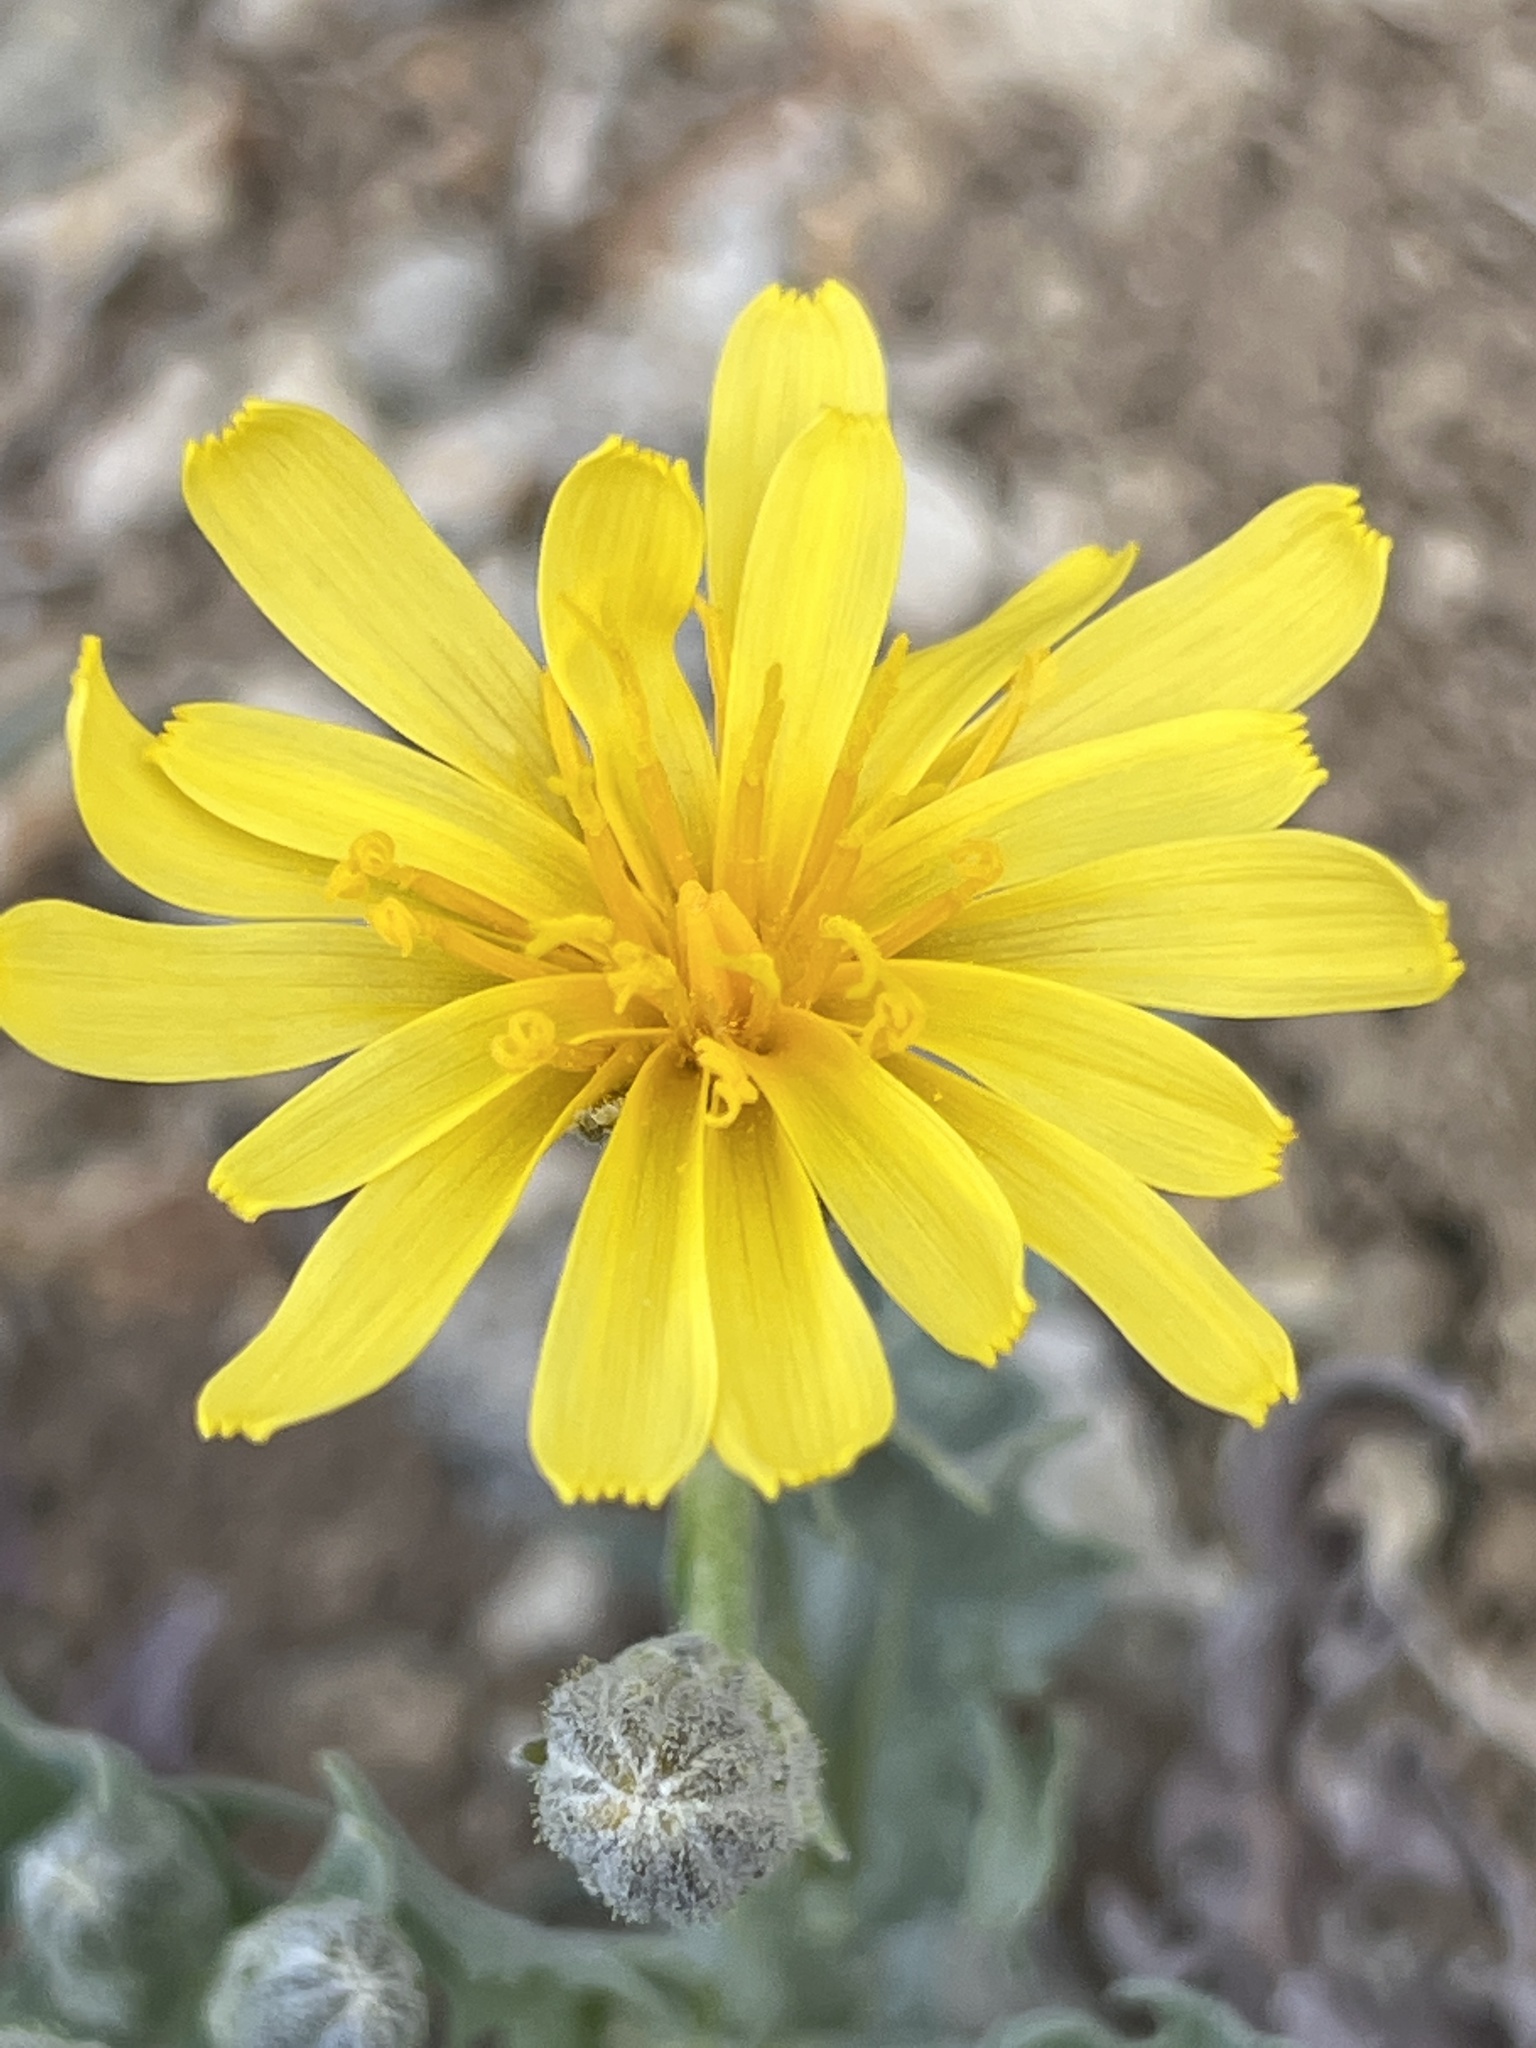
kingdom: Plantae
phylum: Tracheophyta
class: Magnoliopsida
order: Asterales
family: Asteraceae
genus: Crepis
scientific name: Crepis occidentalis
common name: Gray hawk's-beard
